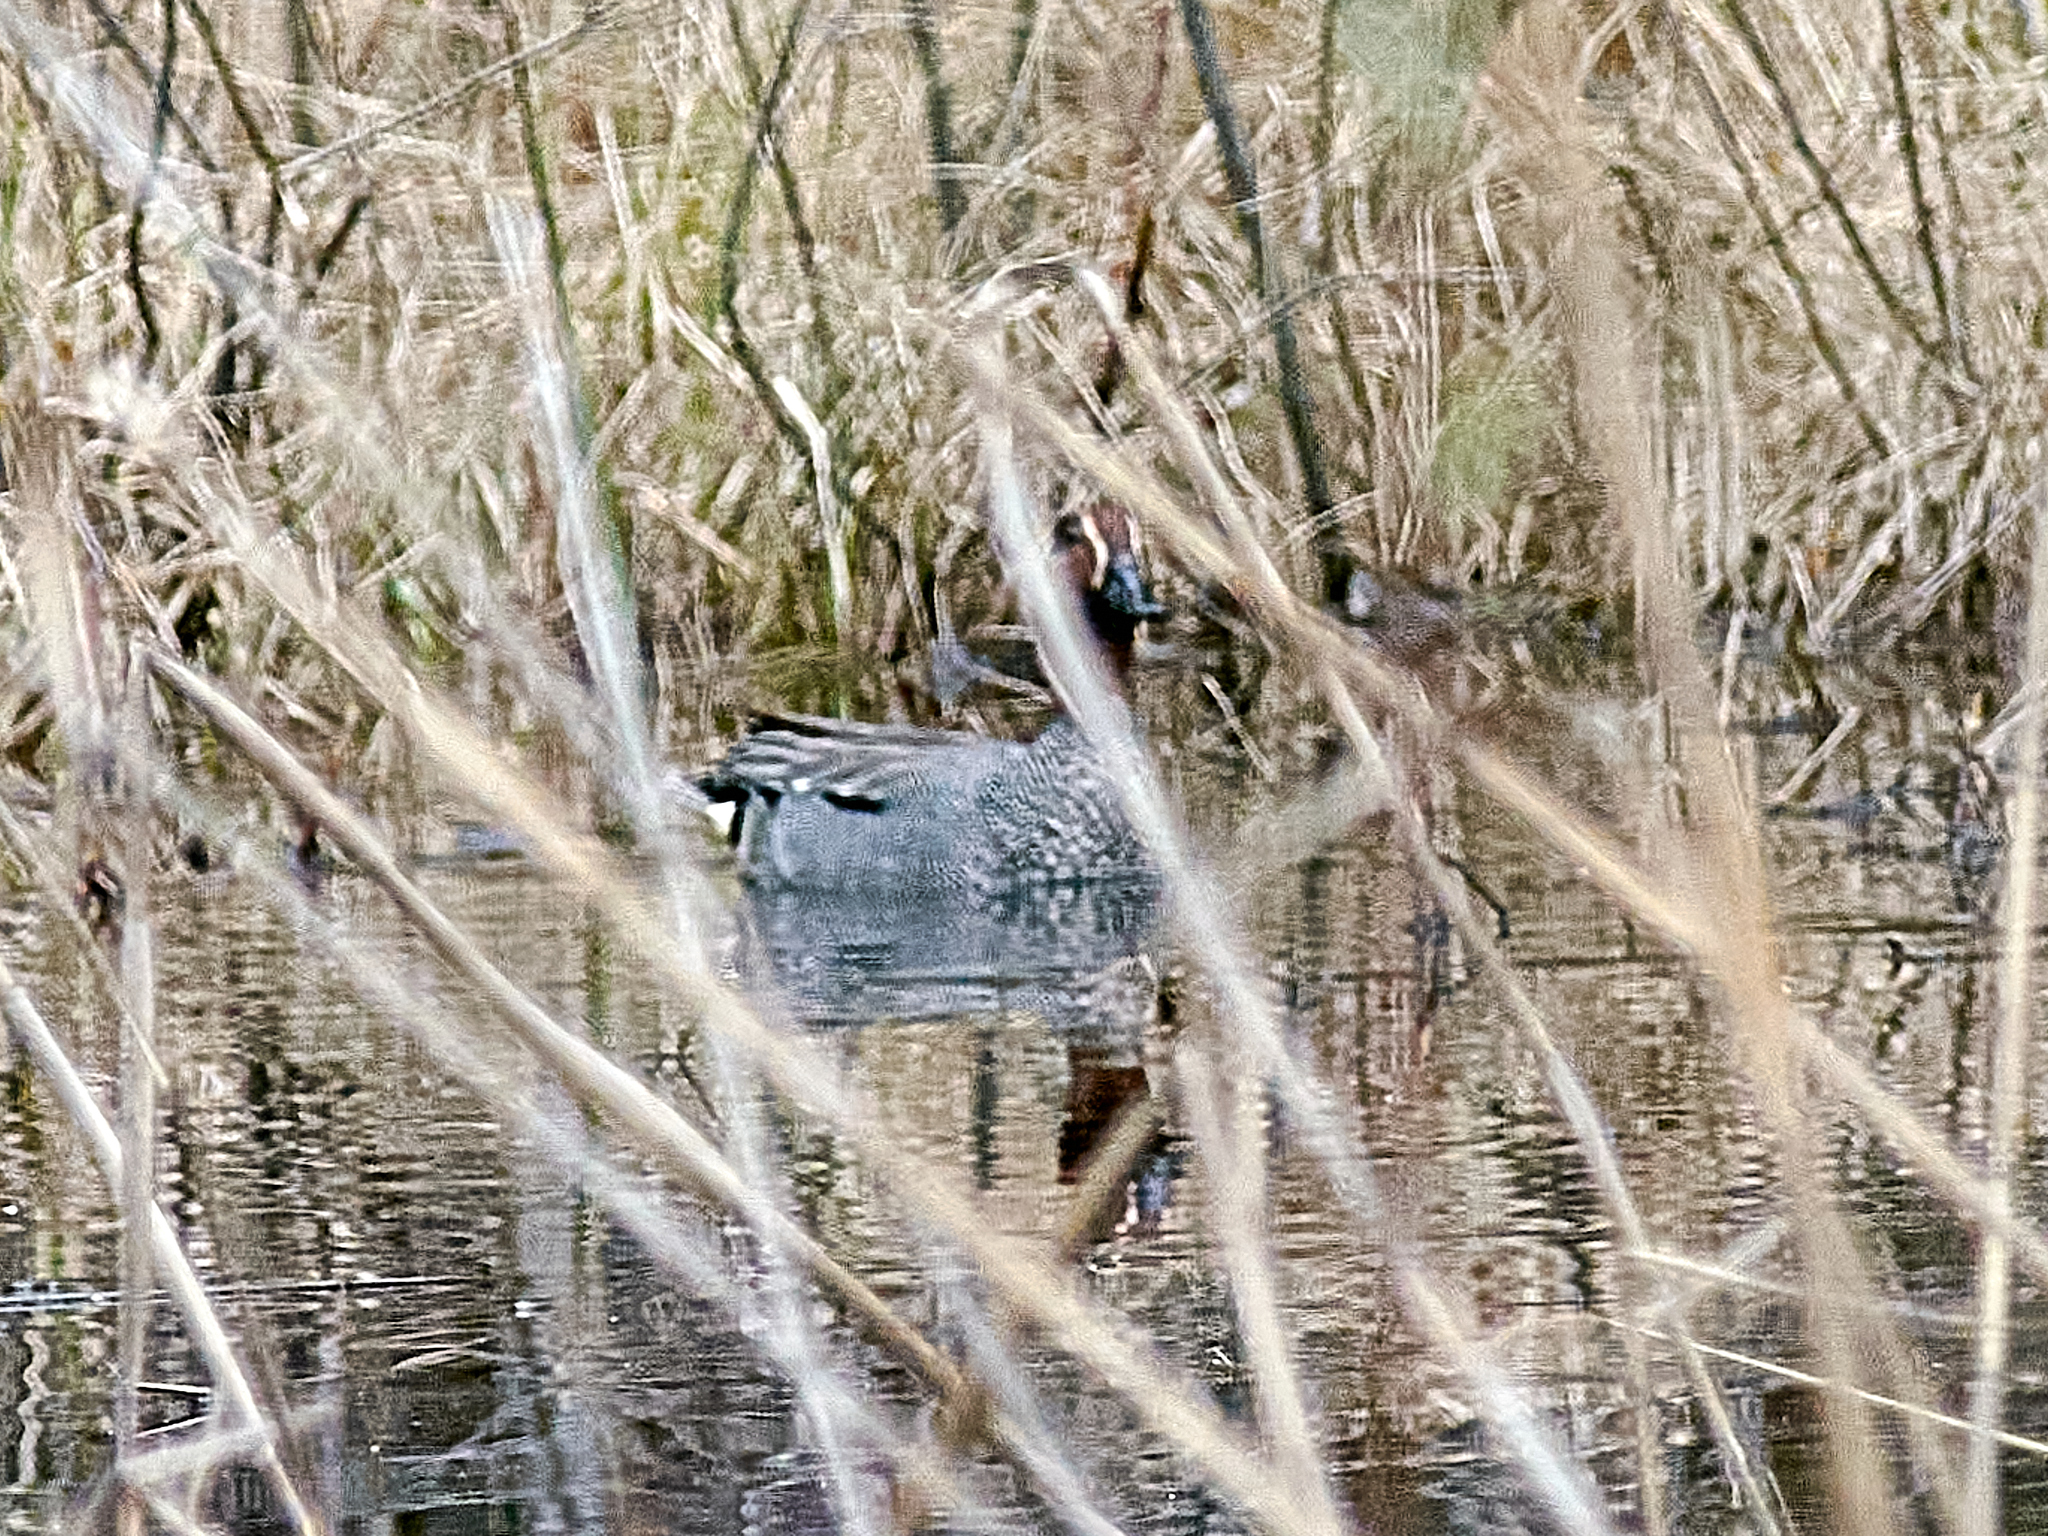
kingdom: Animalia
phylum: Chordata
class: Aves
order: Anseriformes
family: Anatidae
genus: Anas
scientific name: Anas crecca
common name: Eurasian teal
